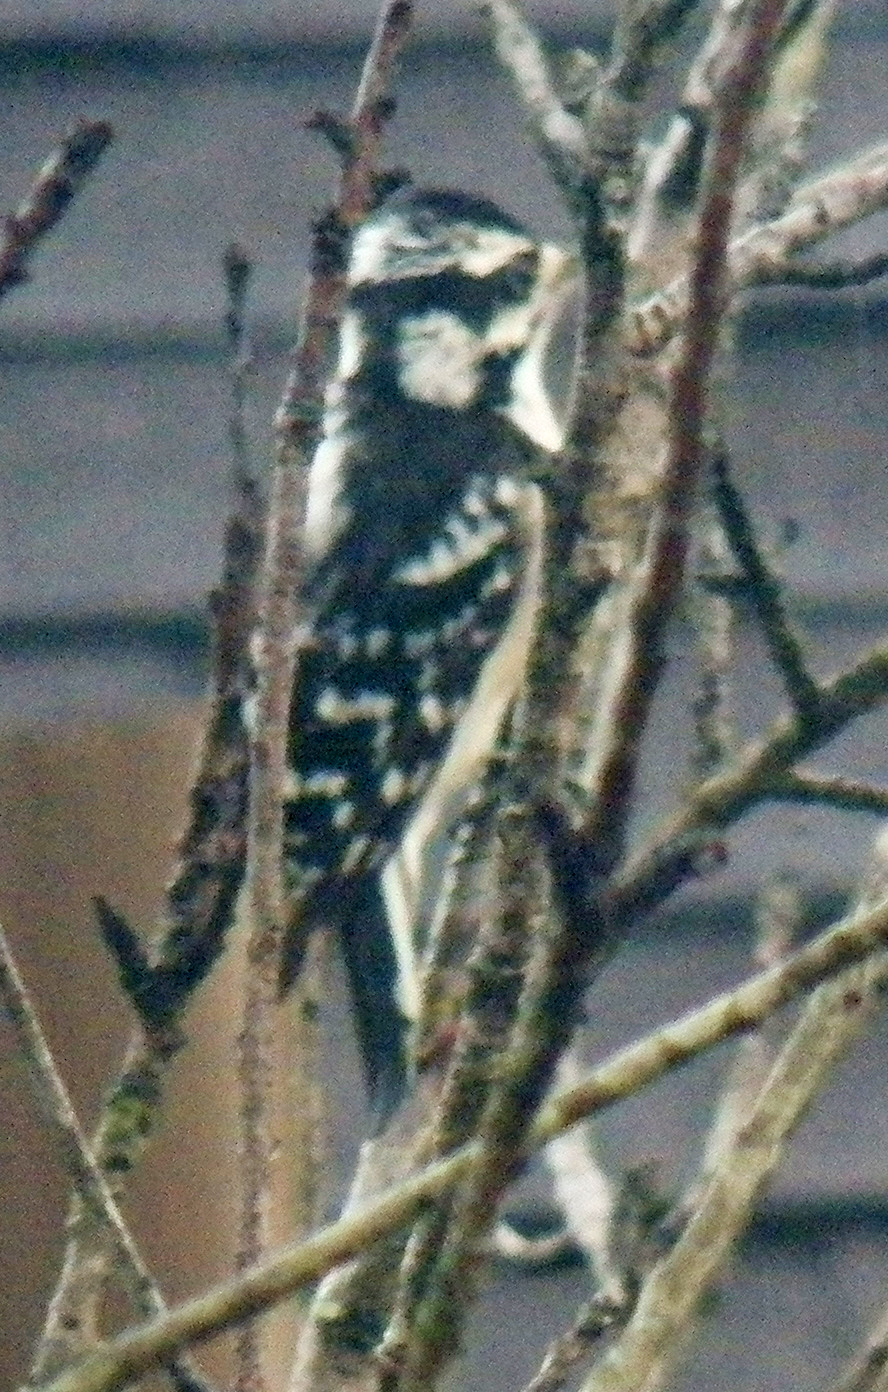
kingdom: Animalia
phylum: Chordata
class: Aves
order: Piciformes
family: Picidae
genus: Dryobates
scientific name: Dryobates pubescens
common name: Downy woodpecker
